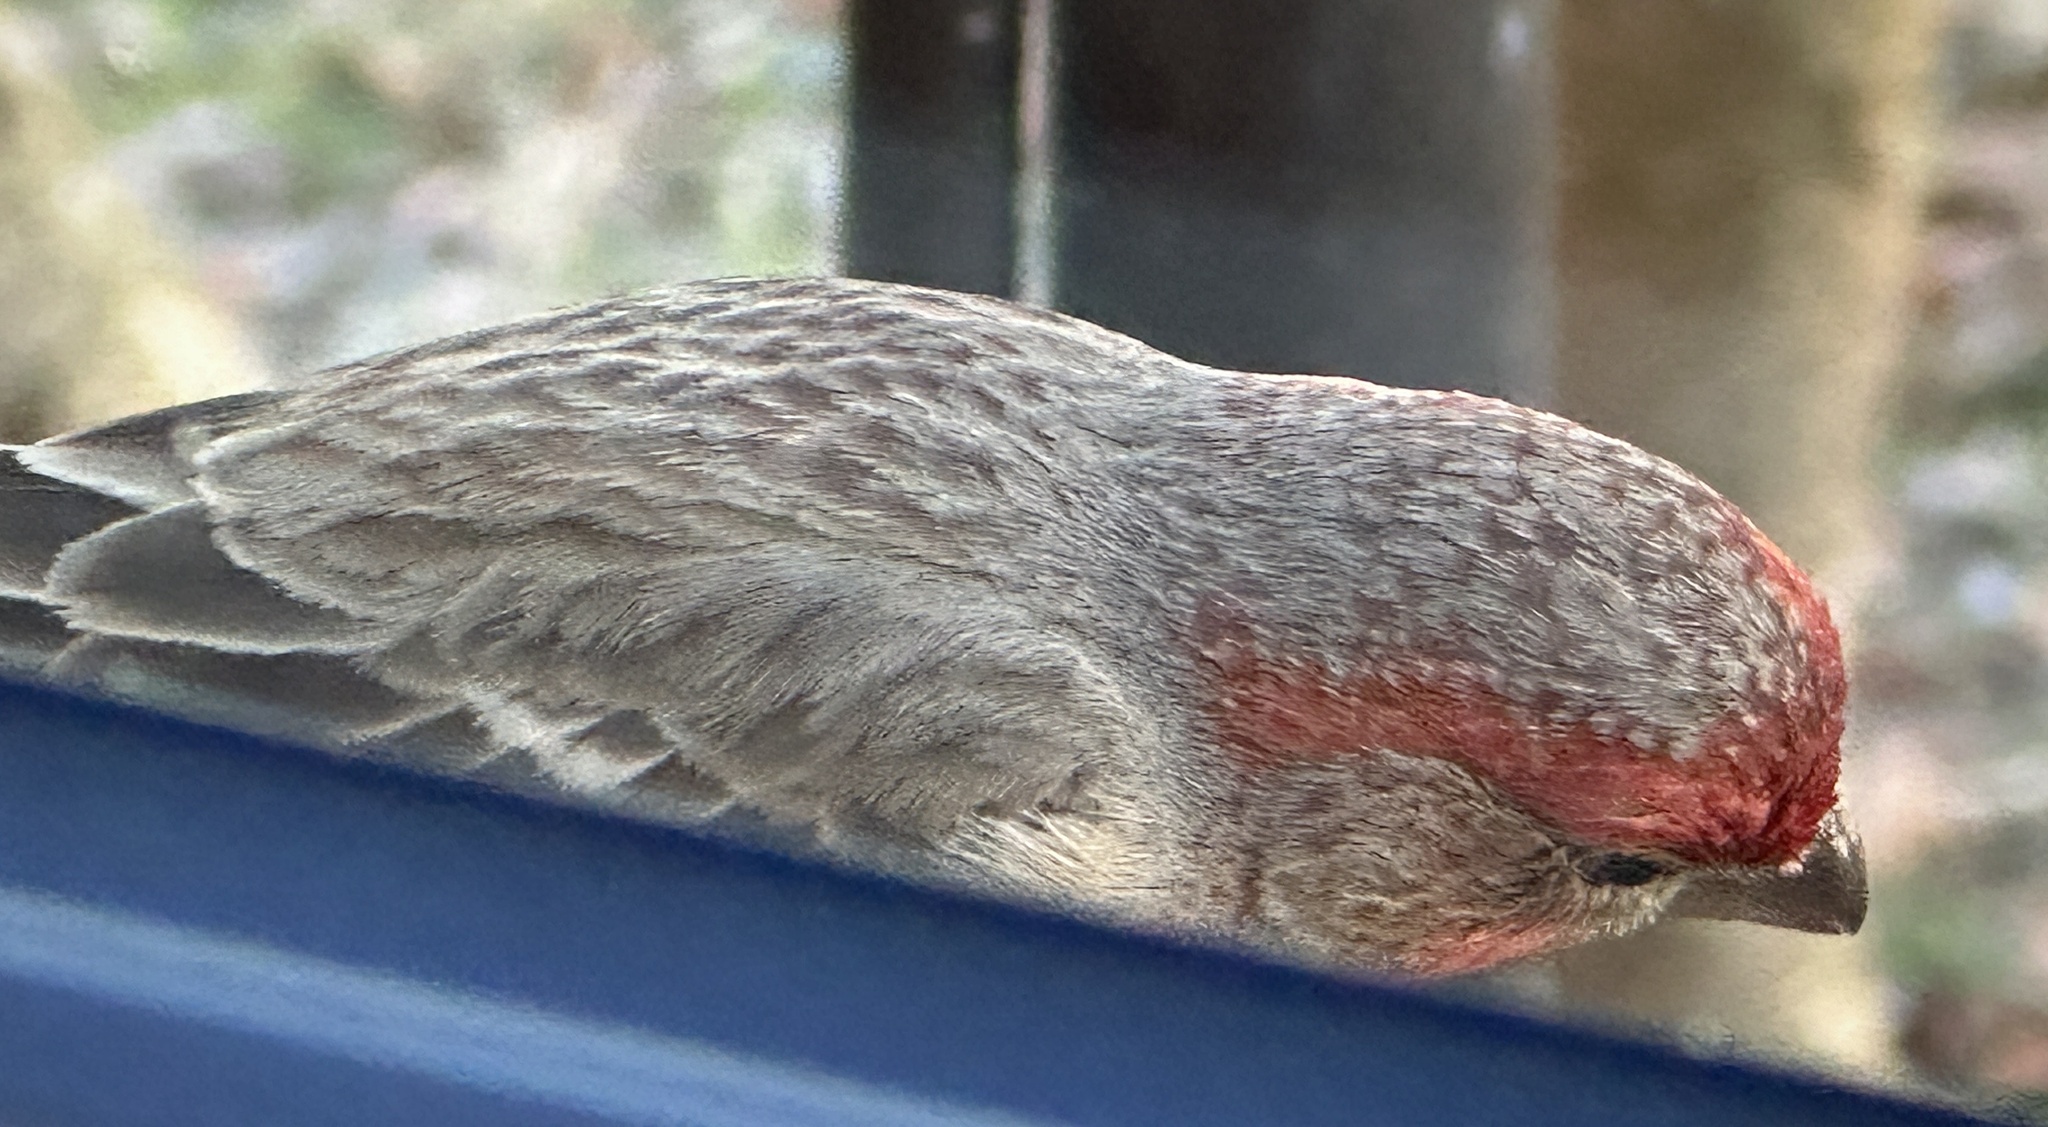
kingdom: Animalia
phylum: Chordata
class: Aves
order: Passeriformes
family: Fringillidae
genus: Haemorhous
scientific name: Haemorhous mexicanus
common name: House finch
